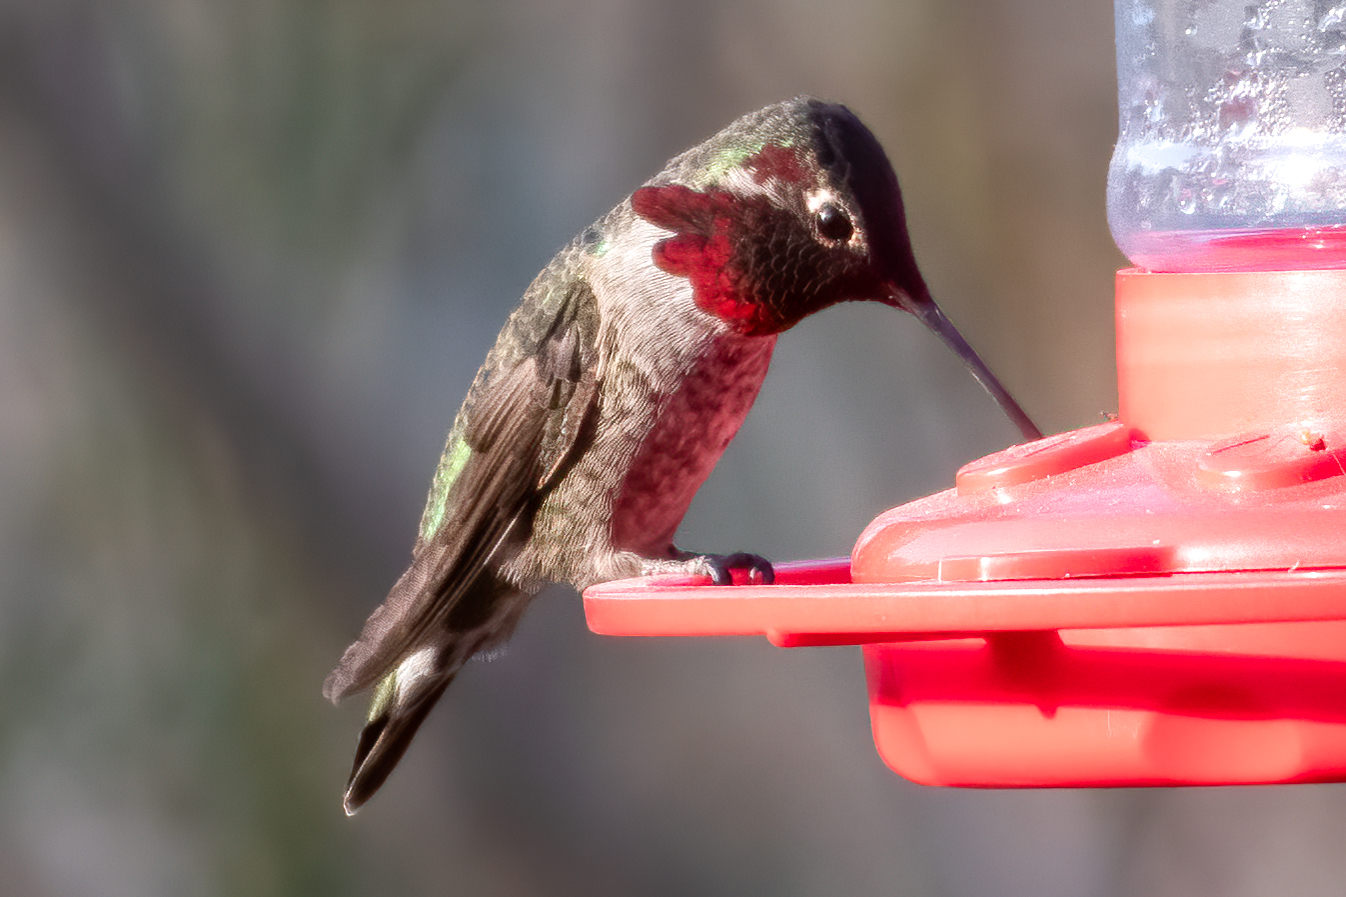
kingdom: Animalia
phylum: Chordata
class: Aves
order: Apodiformes
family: Trochilidae
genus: Calypte
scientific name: Calypte anna
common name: Anna's hummingbird
